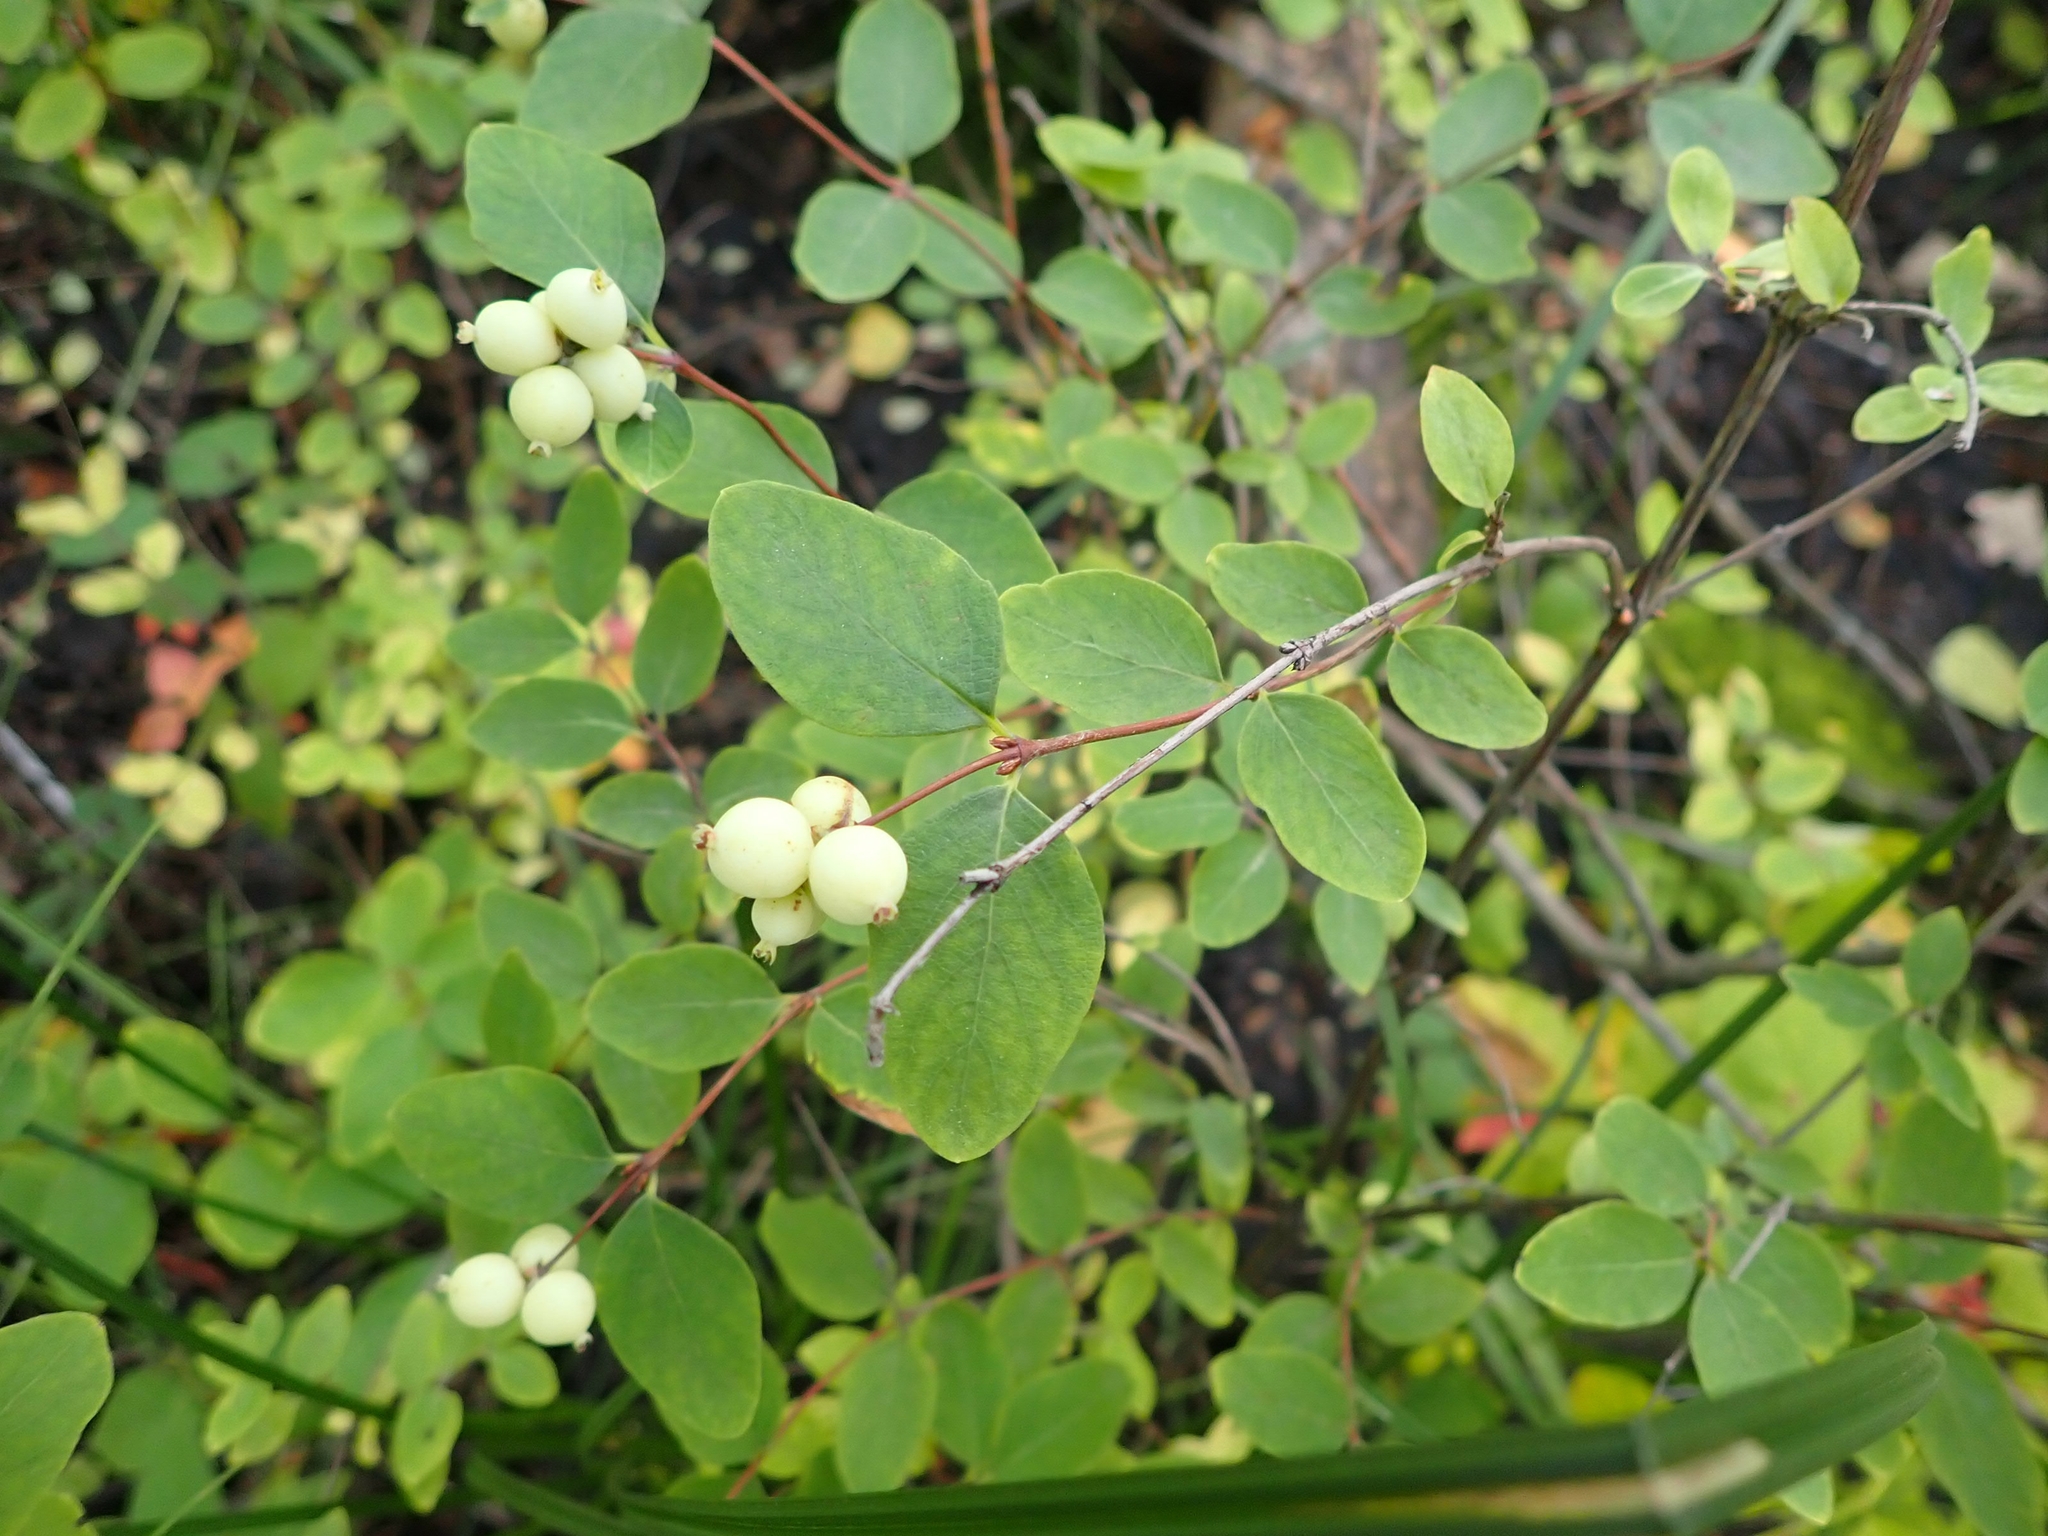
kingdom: Plantae
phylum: Tracheophyta
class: Magnoliopsida
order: Dipsacales
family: Caprifoliaceae
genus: Symphoricarpos
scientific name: Symphoricarpos occidentalis
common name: Wolfberry
